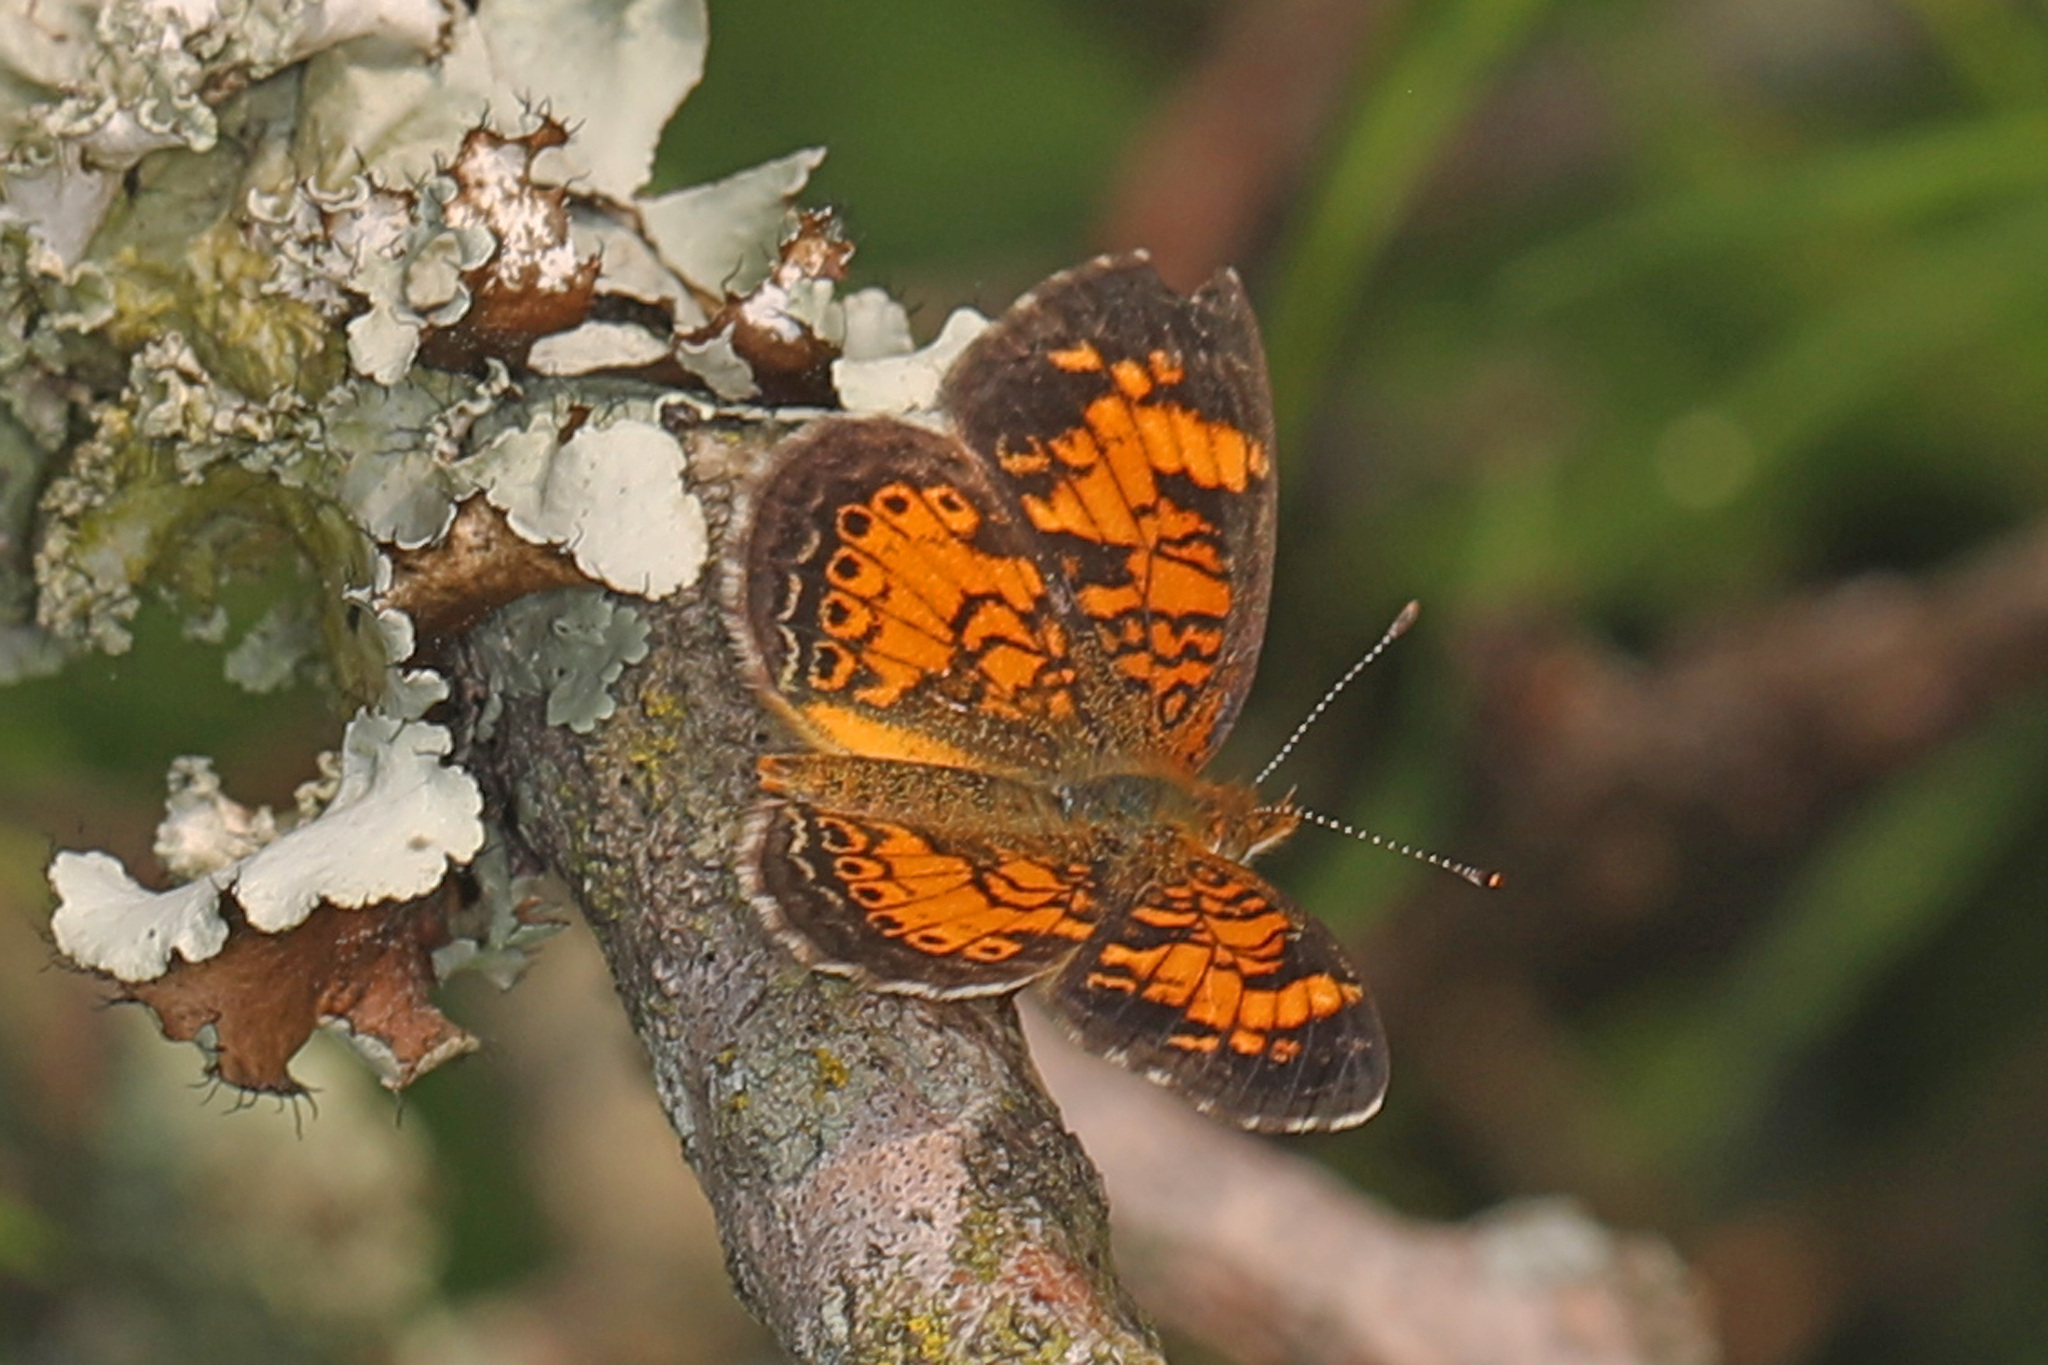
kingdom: Animalia
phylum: Arthropoda
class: Insecta
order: Lepidoptera
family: Nymphalidae
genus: Phyciodes
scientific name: Phyciodes tharos
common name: Pearl crescent
